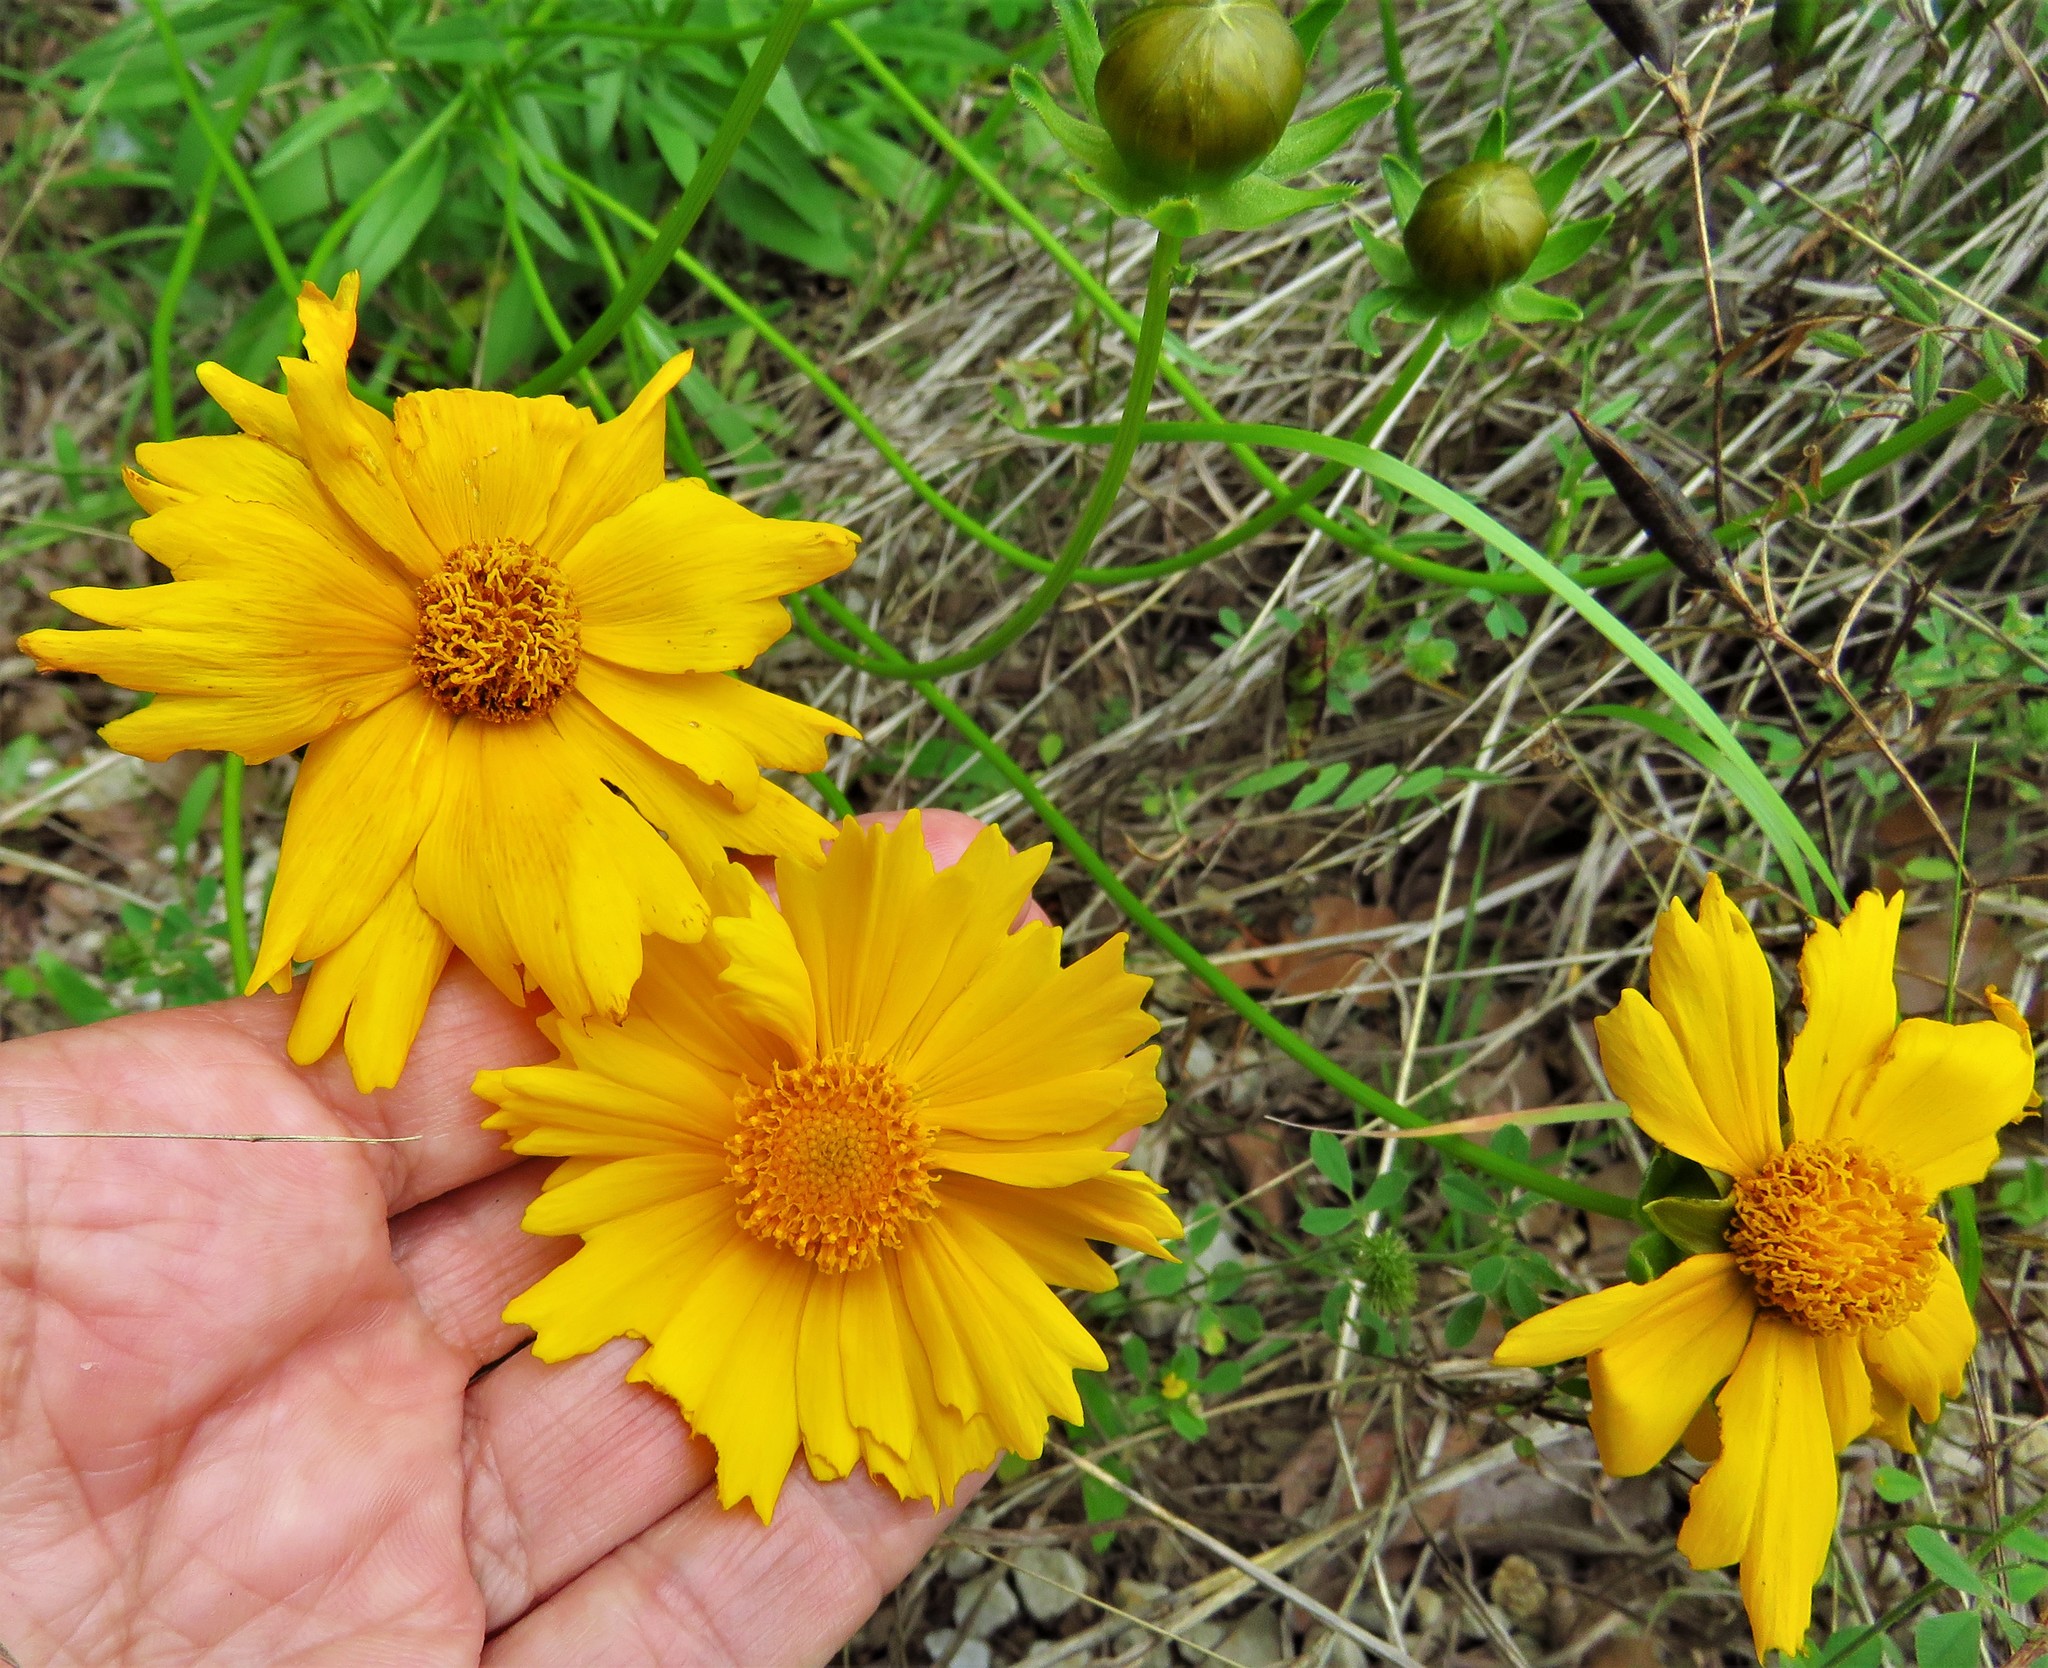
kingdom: Plantae
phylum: Tracheophyta
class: Magnoliopsida
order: Asterales
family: Asteraceae
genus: Coreopsis
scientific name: Coreopsis lanceolata
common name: Garden coreopsis
